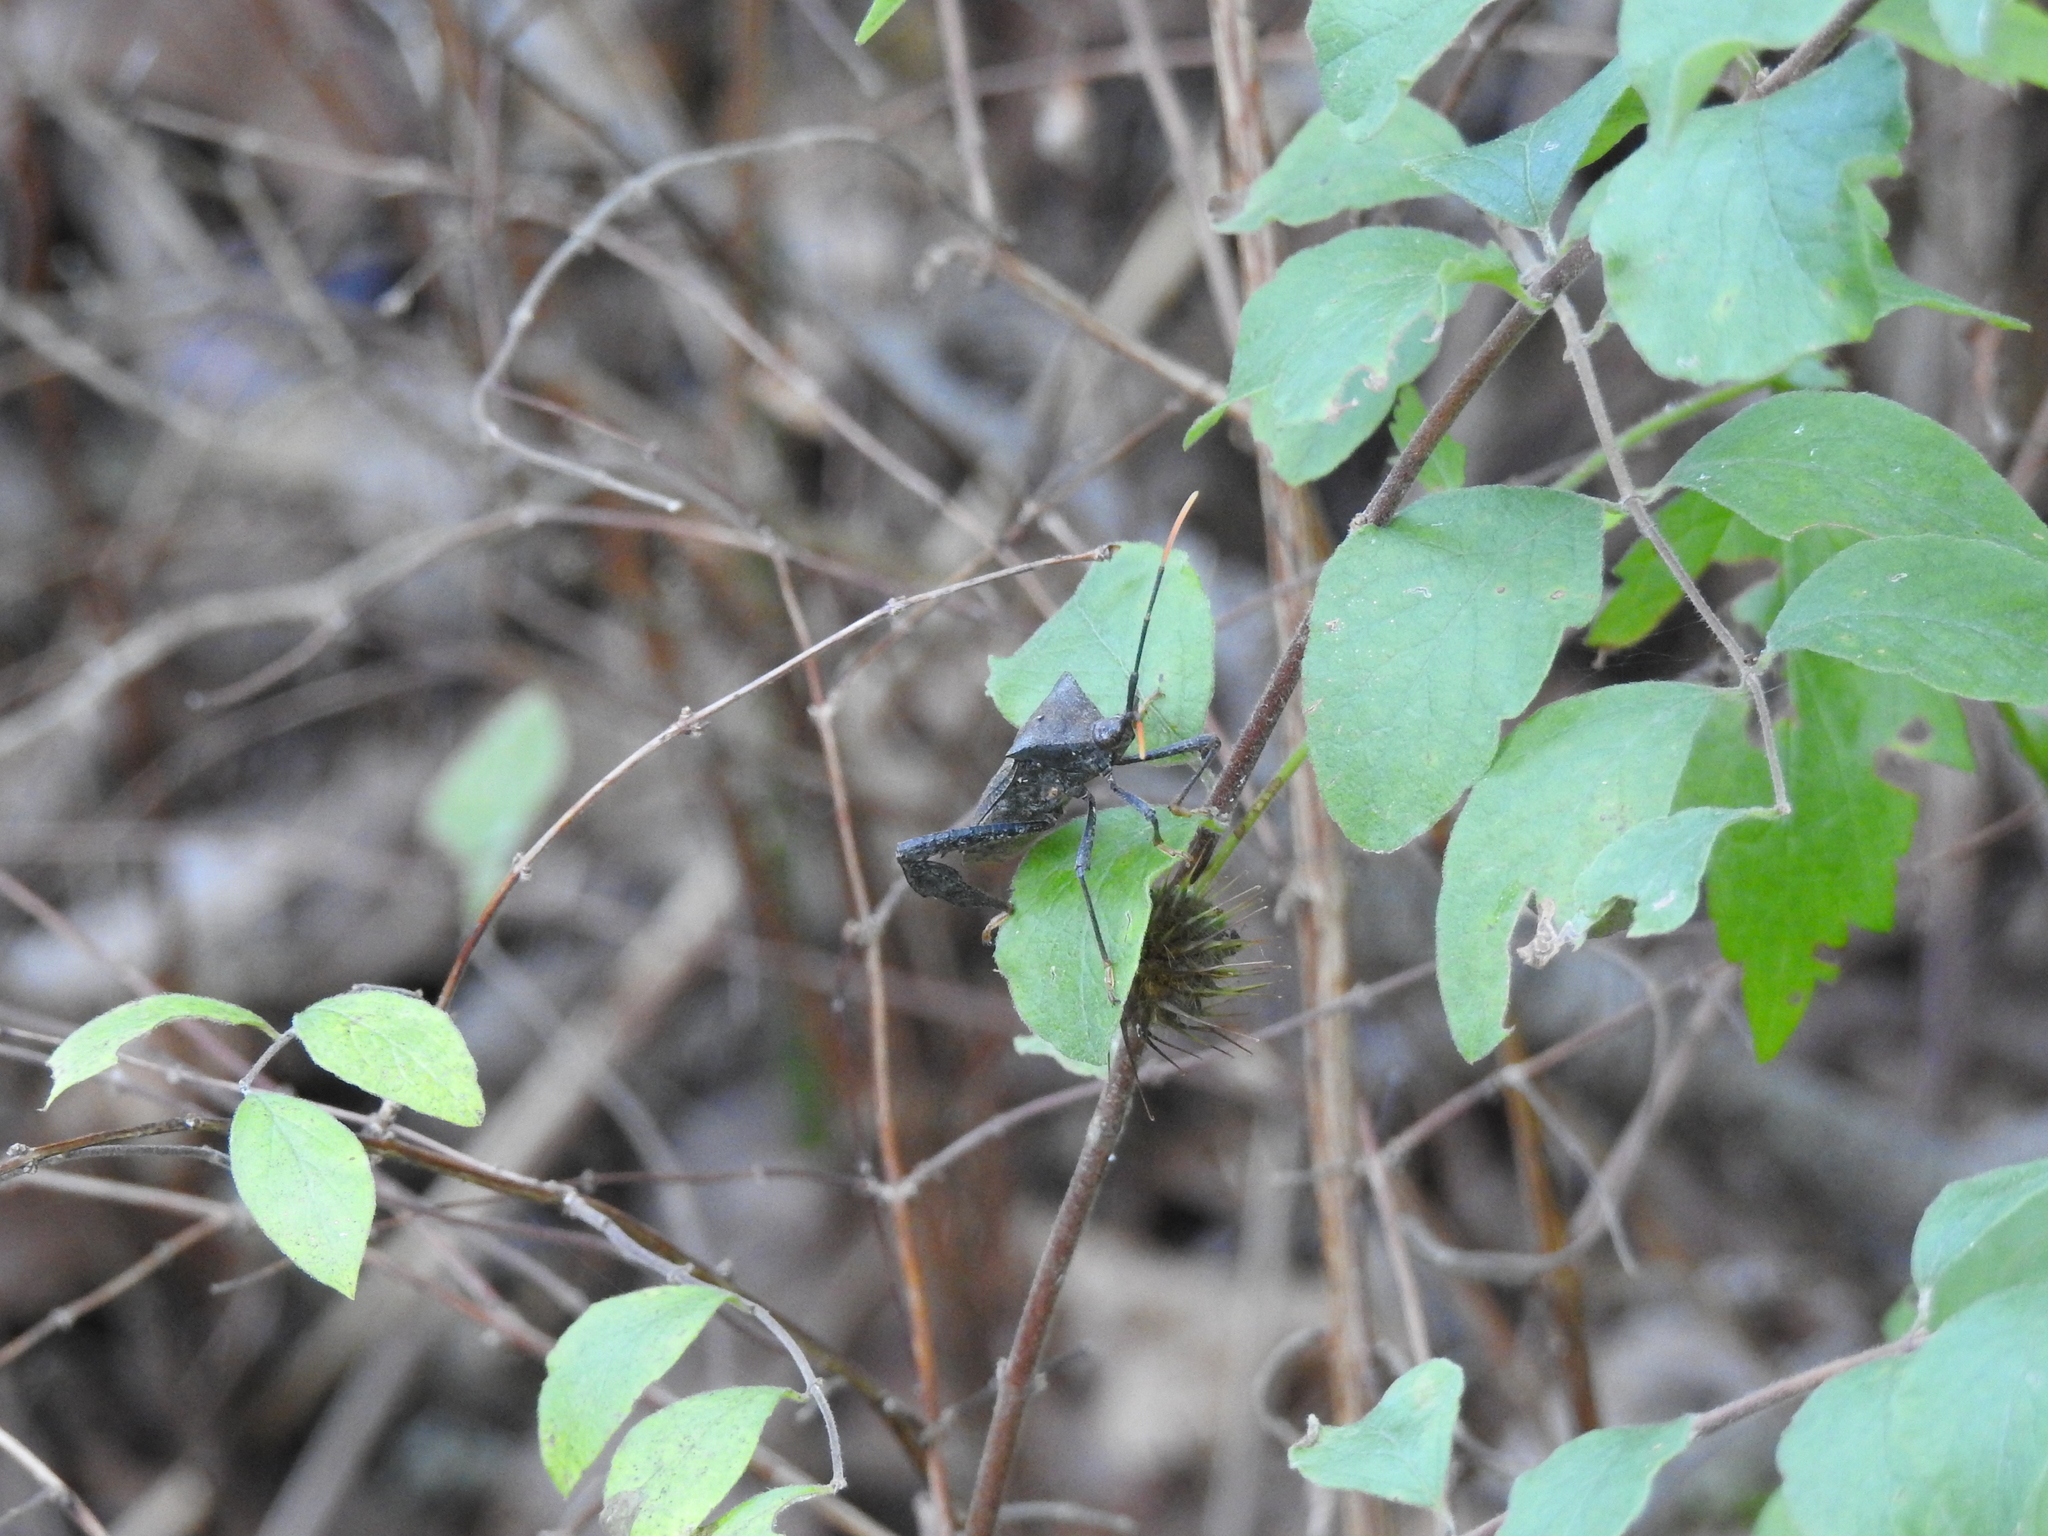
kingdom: Animalia
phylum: Arthropoda
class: Insecta
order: Hemiptera
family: Coreidae
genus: Acanthocephala
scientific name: Acanthocephala terminalis
